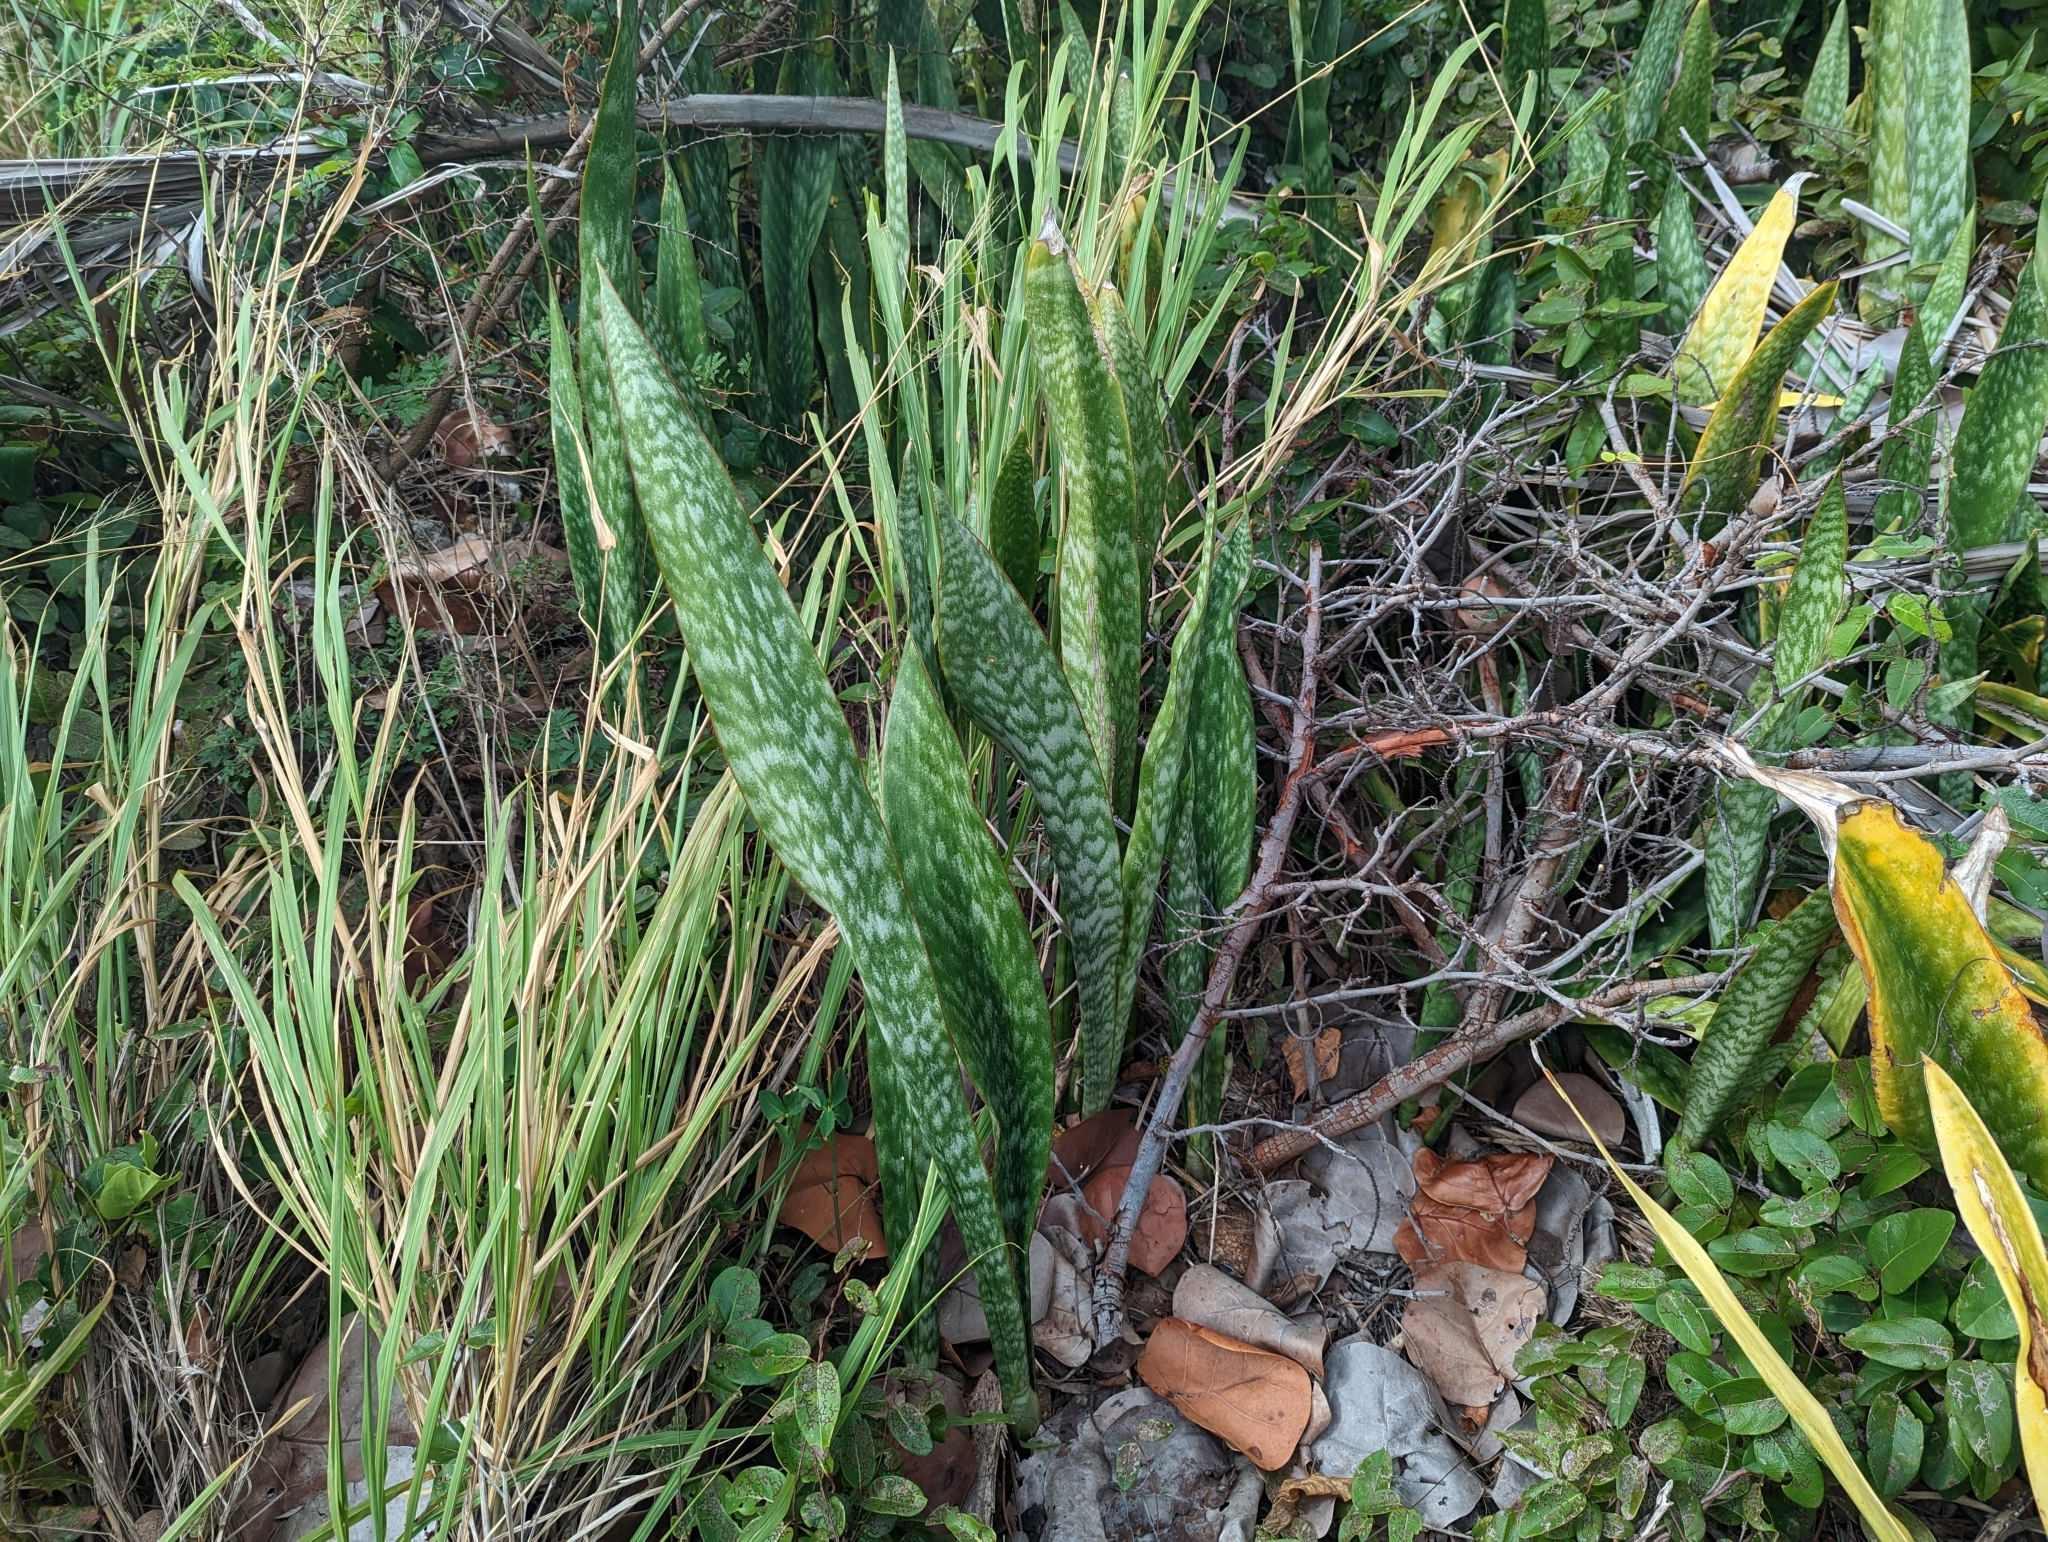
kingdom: Plantae
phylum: Tracheophyta
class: Liliopsida
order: Asparagales
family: Asparagaceae
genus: Dracaena
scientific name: Dracaena hyacinthoides
